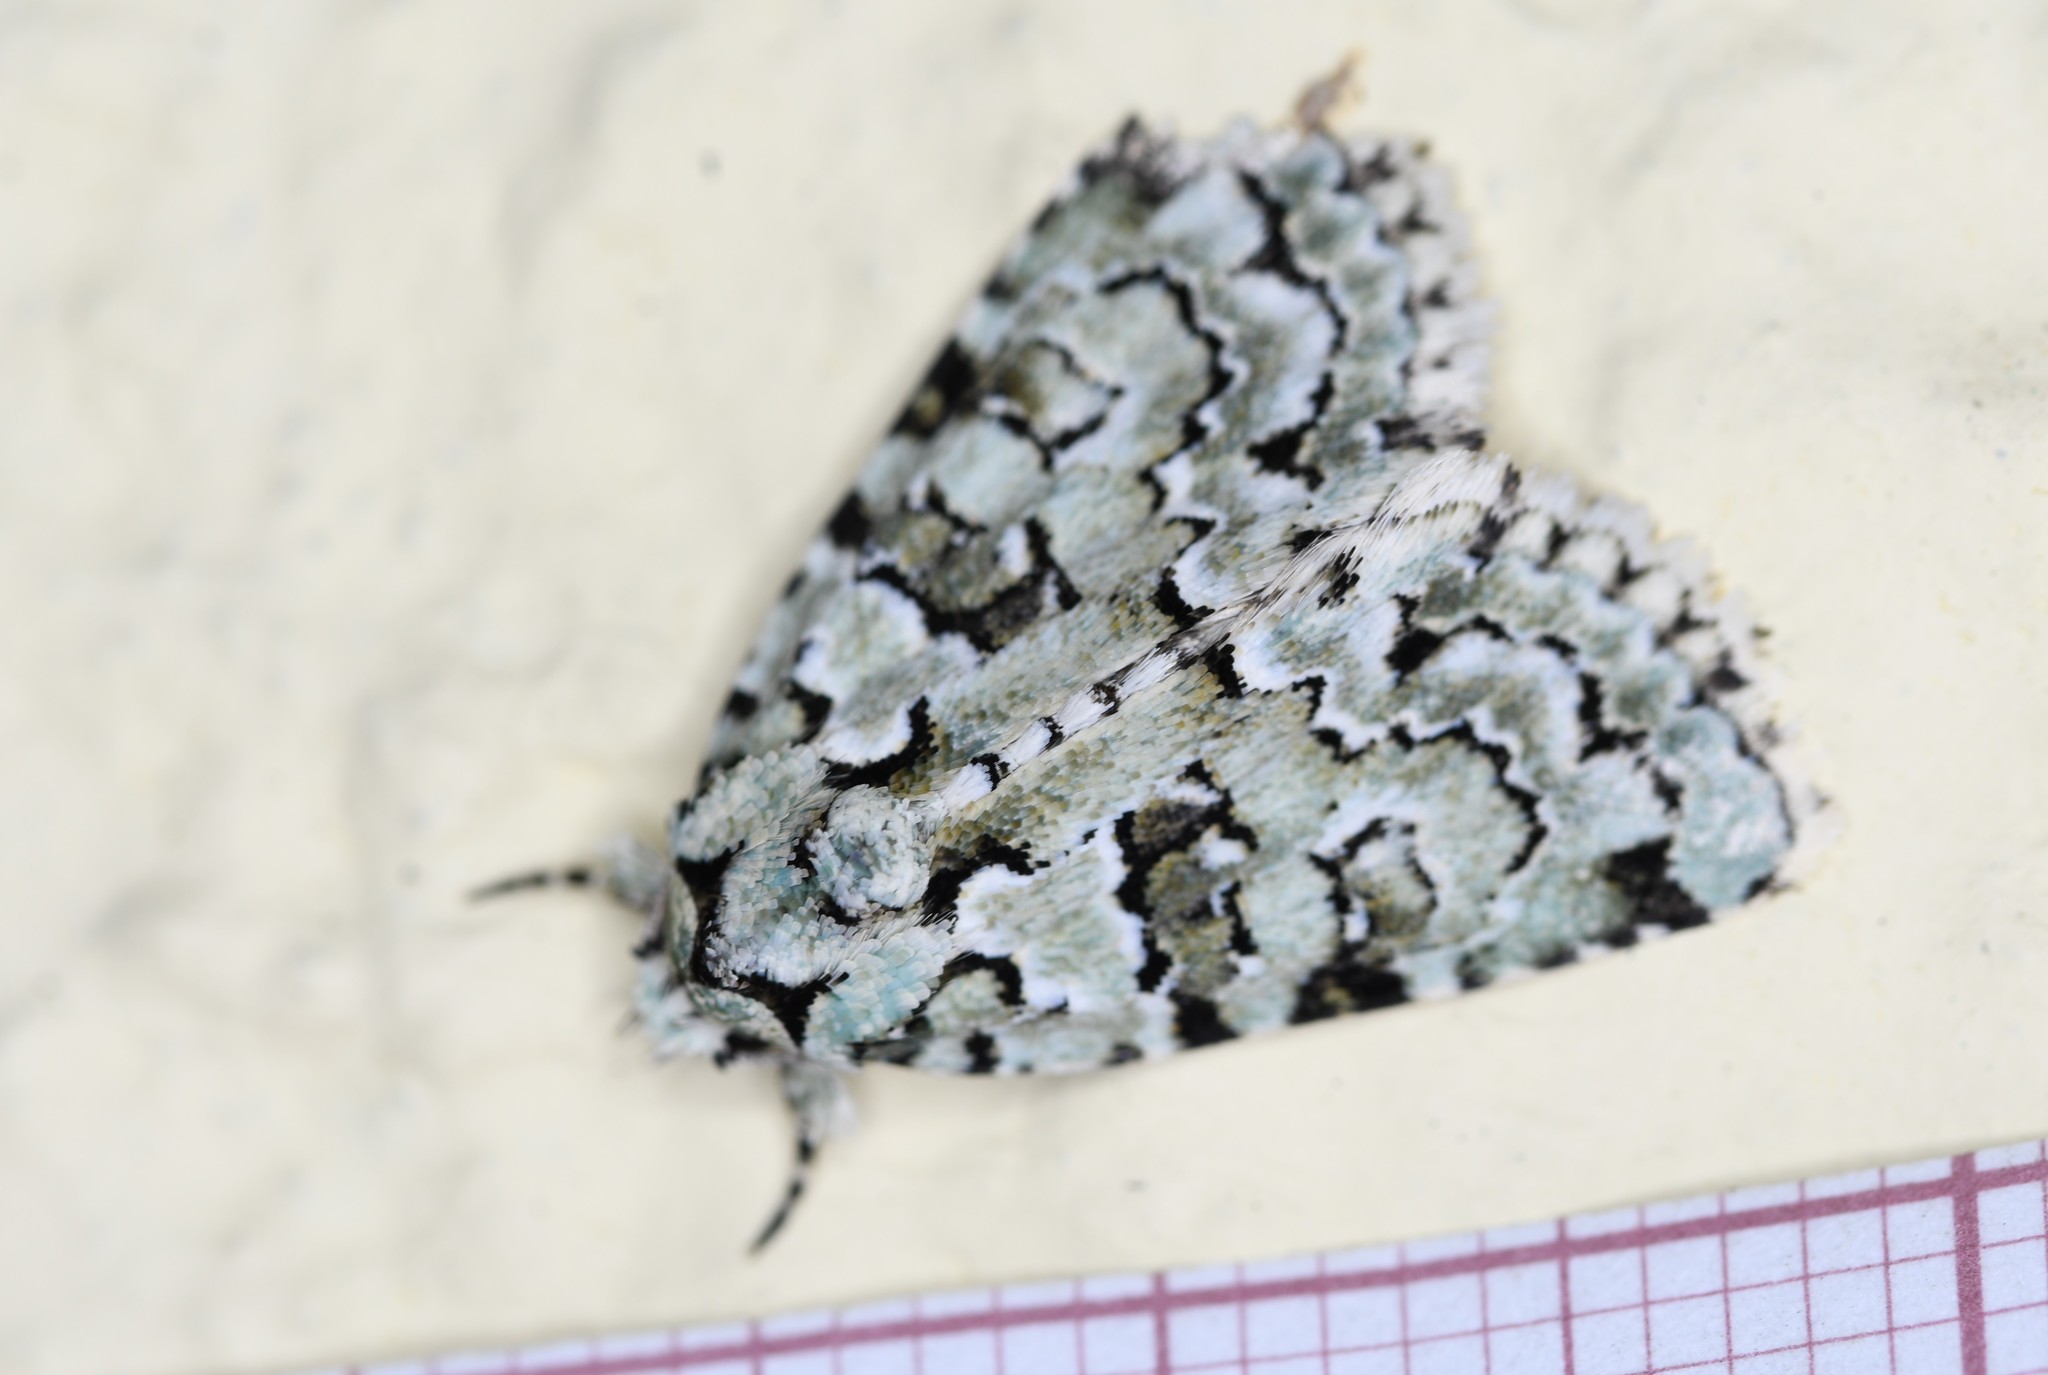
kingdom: Animalia
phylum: Arthropoda
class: Insecta
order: Lepidoptera
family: Noctuidae
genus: Nyctobrya
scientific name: Nyctobrya muralis
